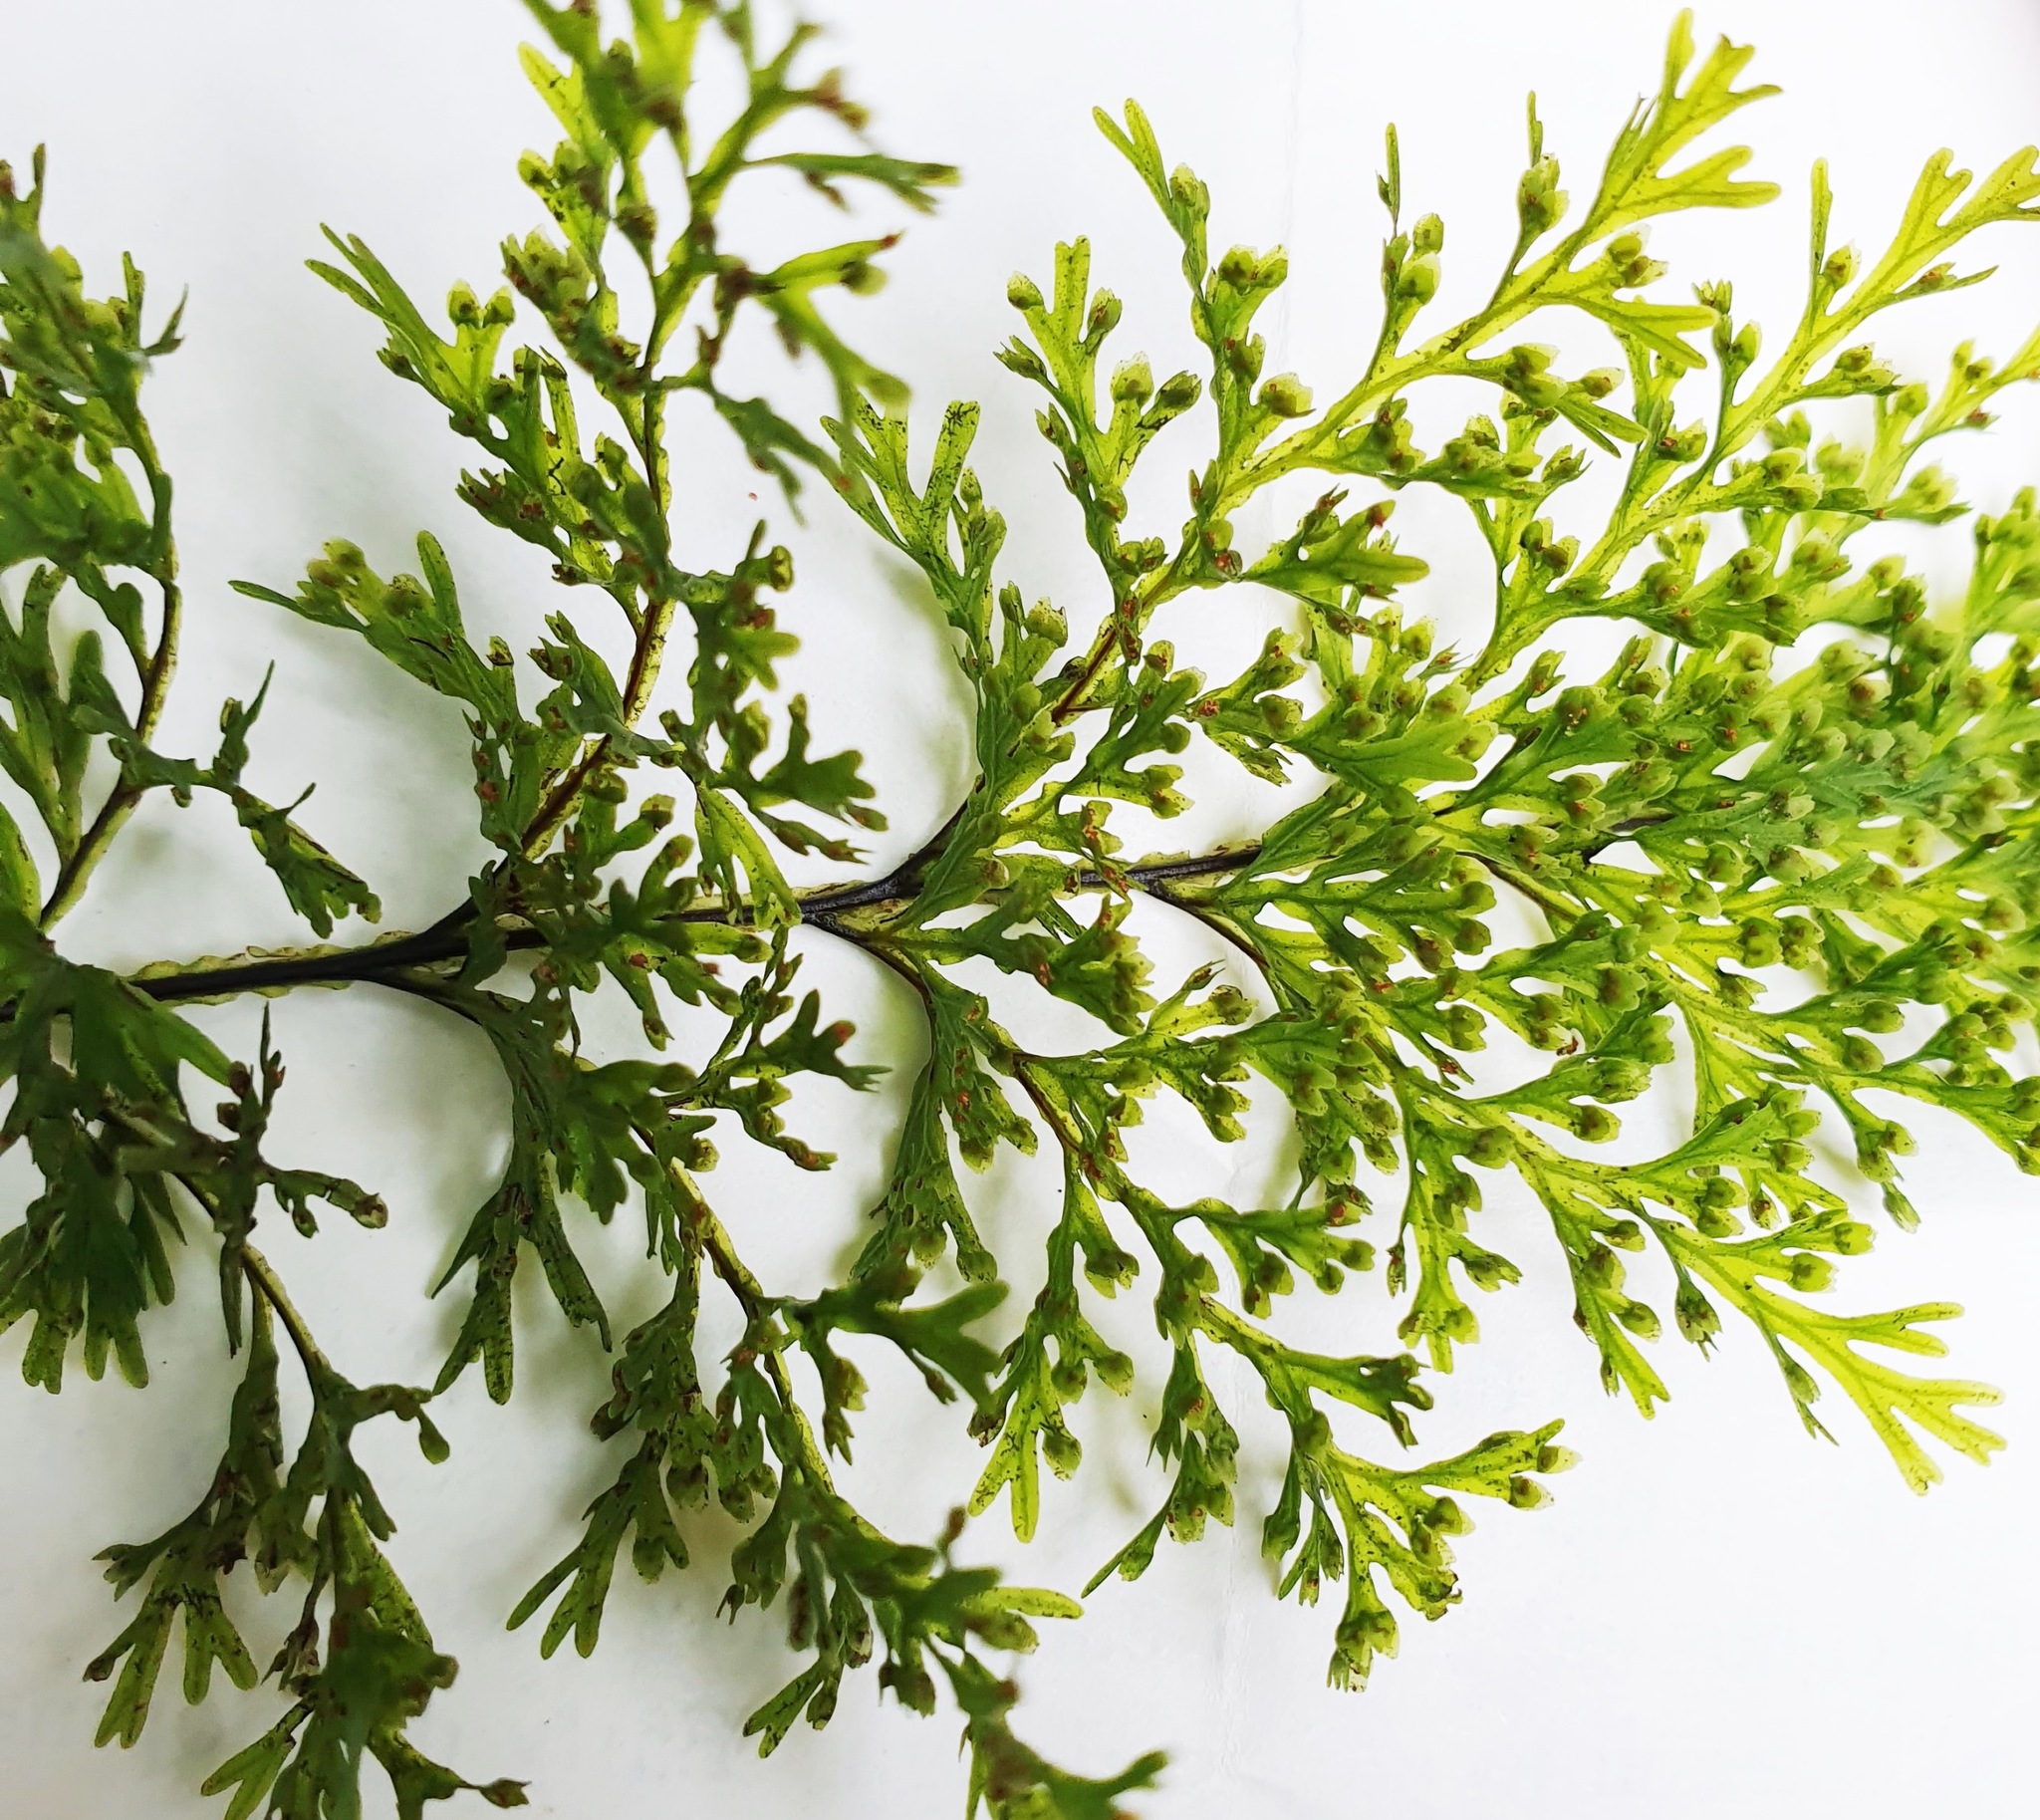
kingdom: Plantae
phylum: Tracheophyta
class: Polypodiopsida
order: Hymenophyllales
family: Hymenophyllaceae
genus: Hymenophyllum
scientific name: Hymenophyllum demissum
